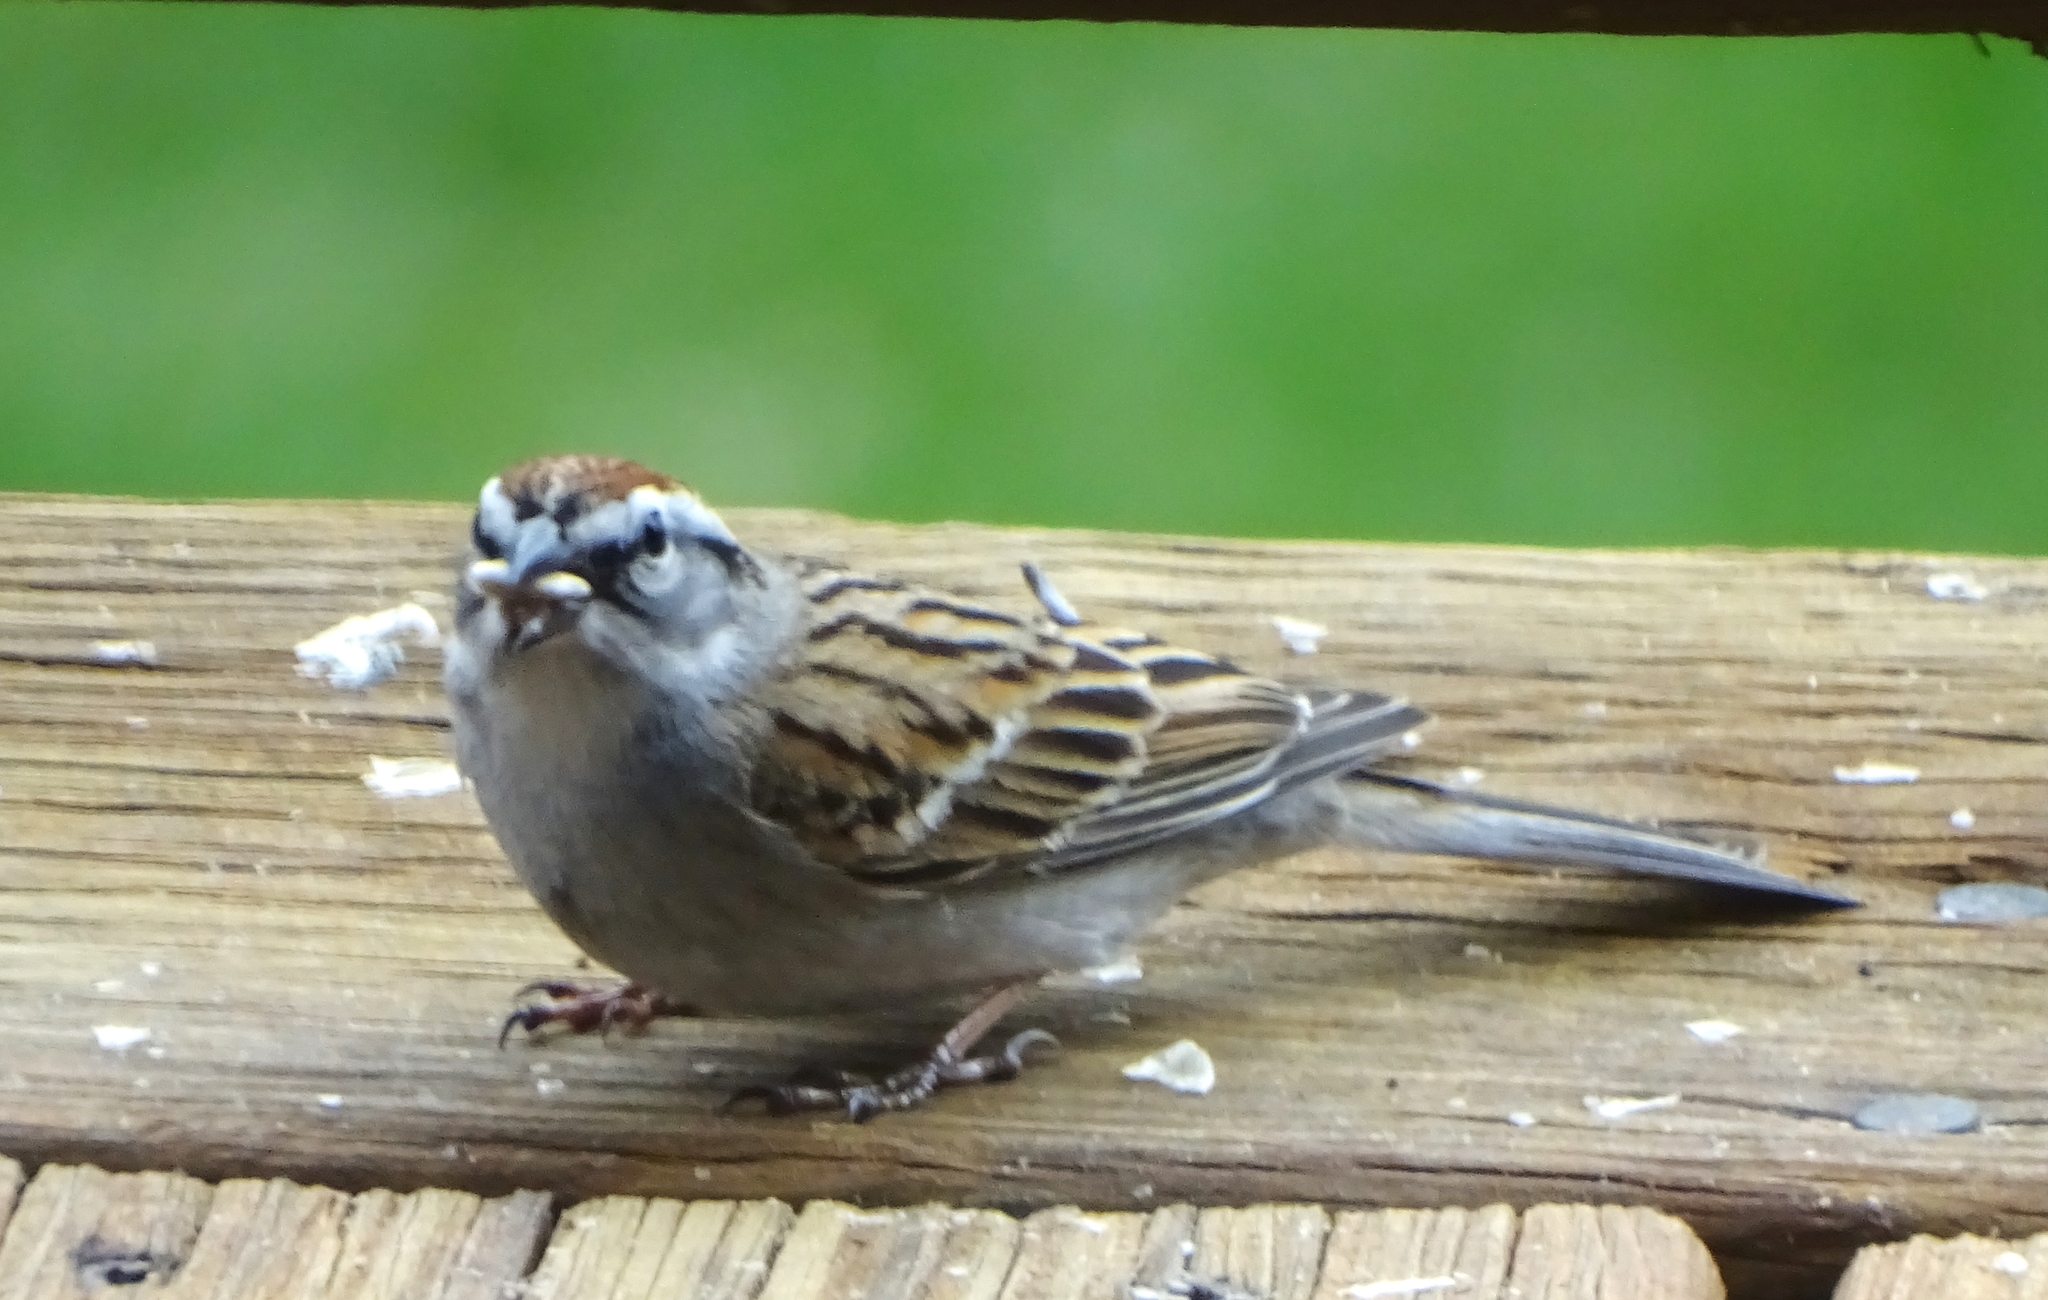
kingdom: Animalia
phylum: Chordata
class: Aves
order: Passeriformes
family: Passerellidae
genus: Spizella
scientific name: Spizella passerina
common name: Chipping sparrow
